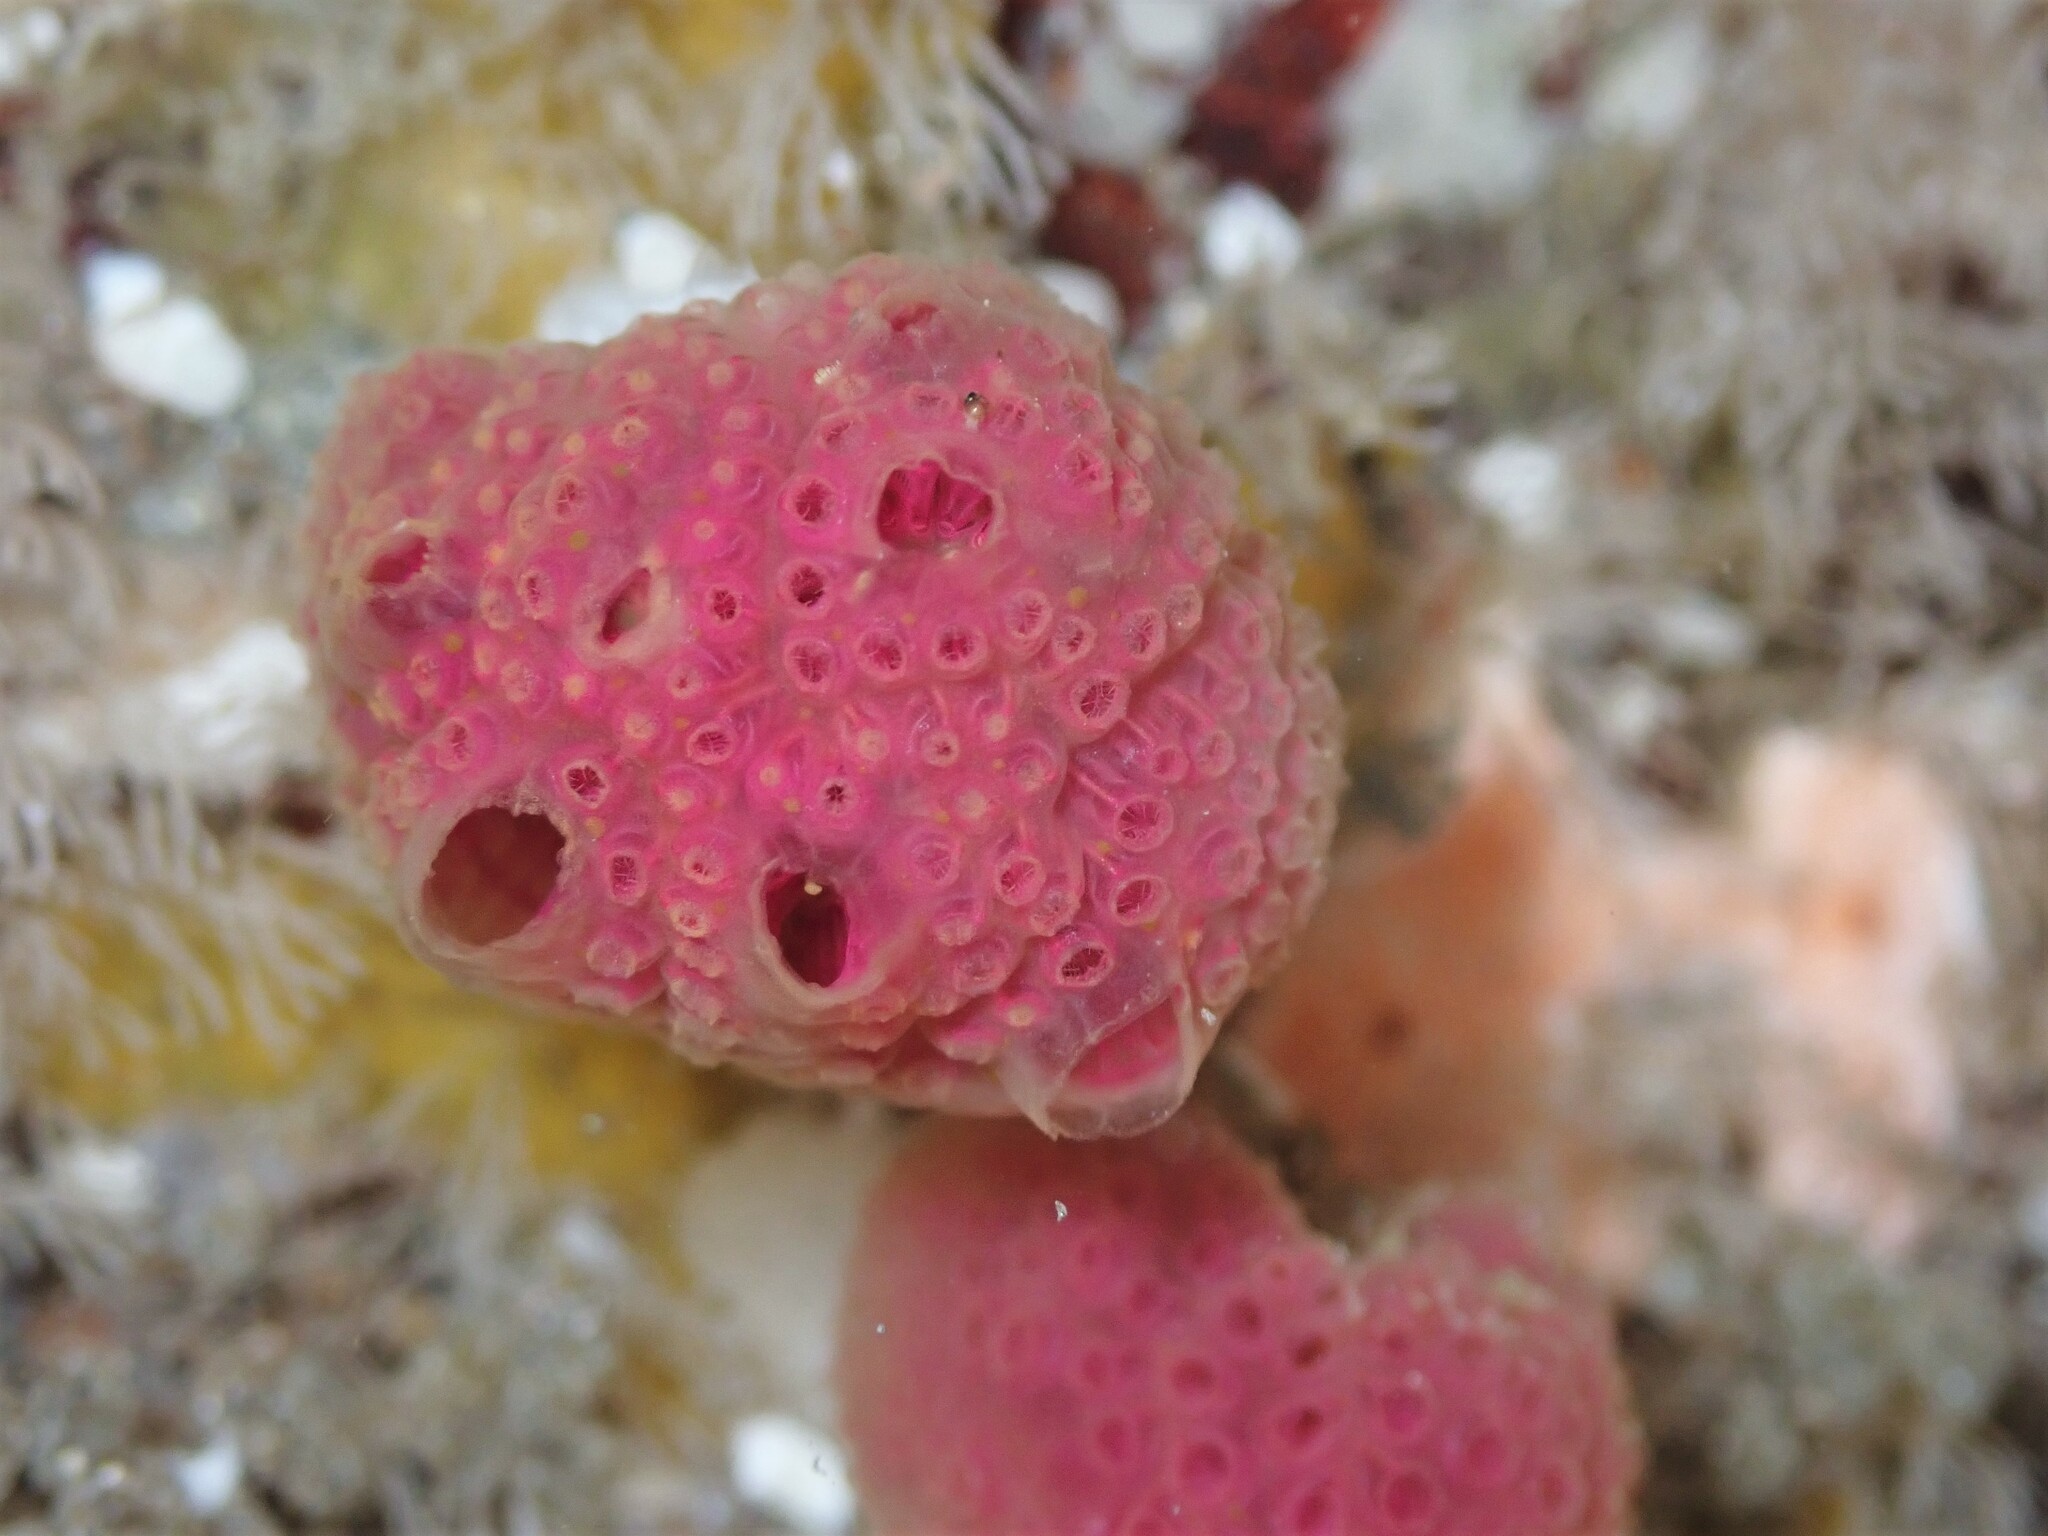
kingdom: Animalia
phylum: Chordata
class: Ascidiacea
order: Aplousobranchia
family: Holozoidae
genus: Hypsistozoa
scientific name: Hypsistozoa fasmeriana
